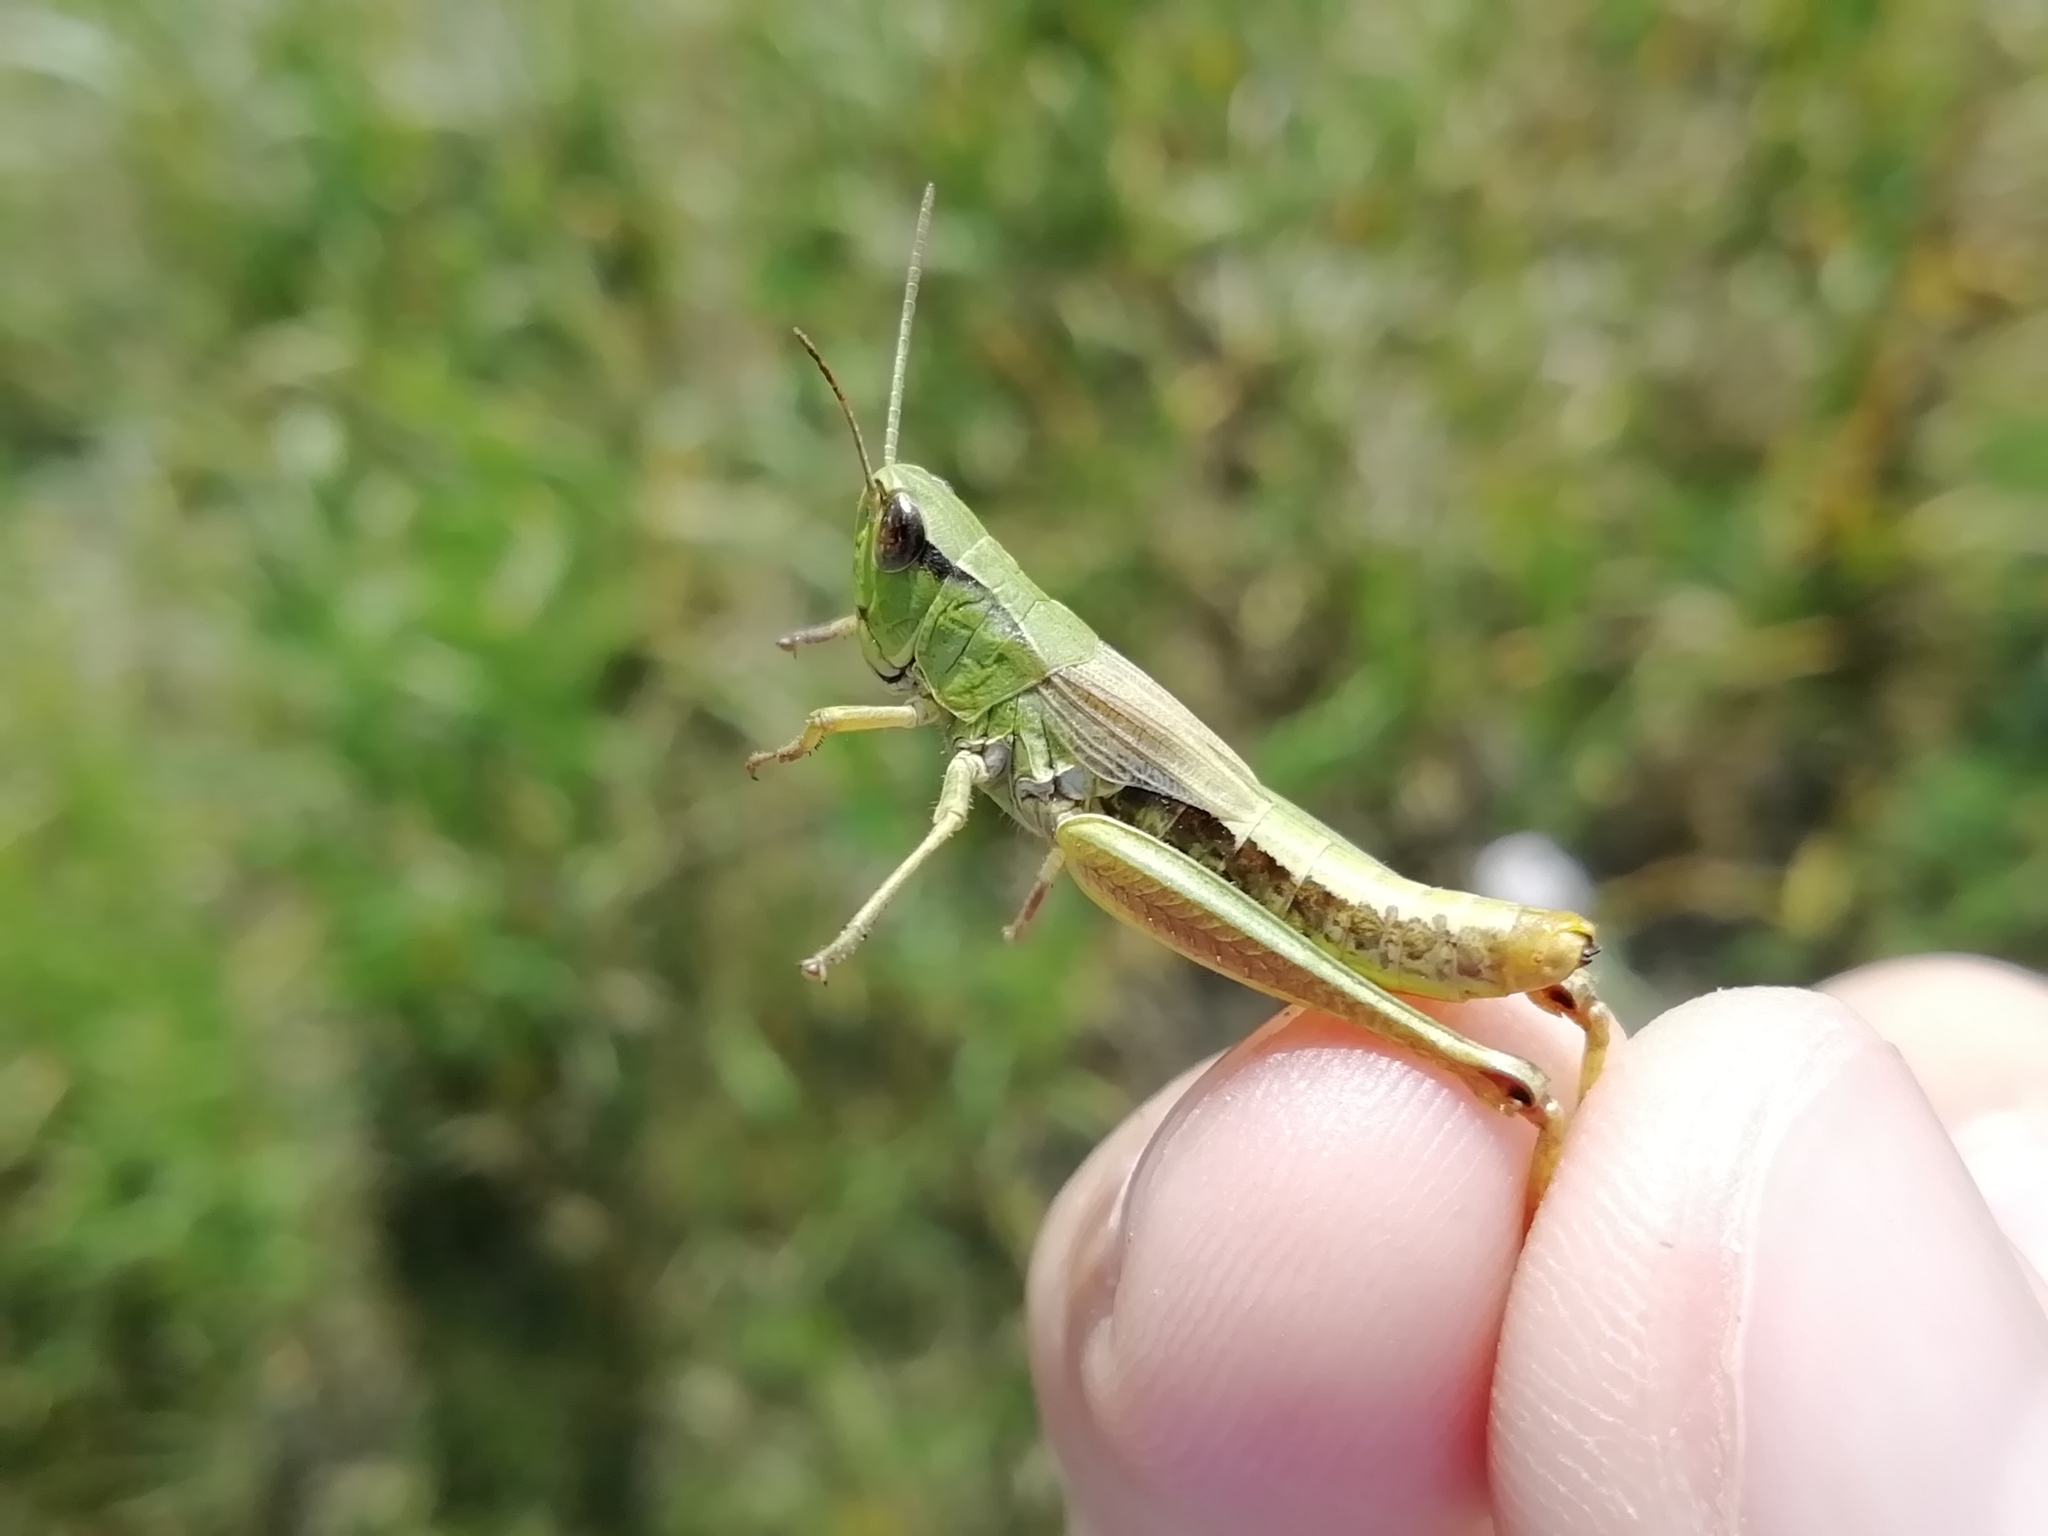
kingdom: Animalia
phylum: Arthropoda
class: Insecta
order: Orthoptera
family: Acrididae
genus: Pseudochorthippus
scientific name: Pseudochorthippus parallelus
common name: Meadow grasshopper
